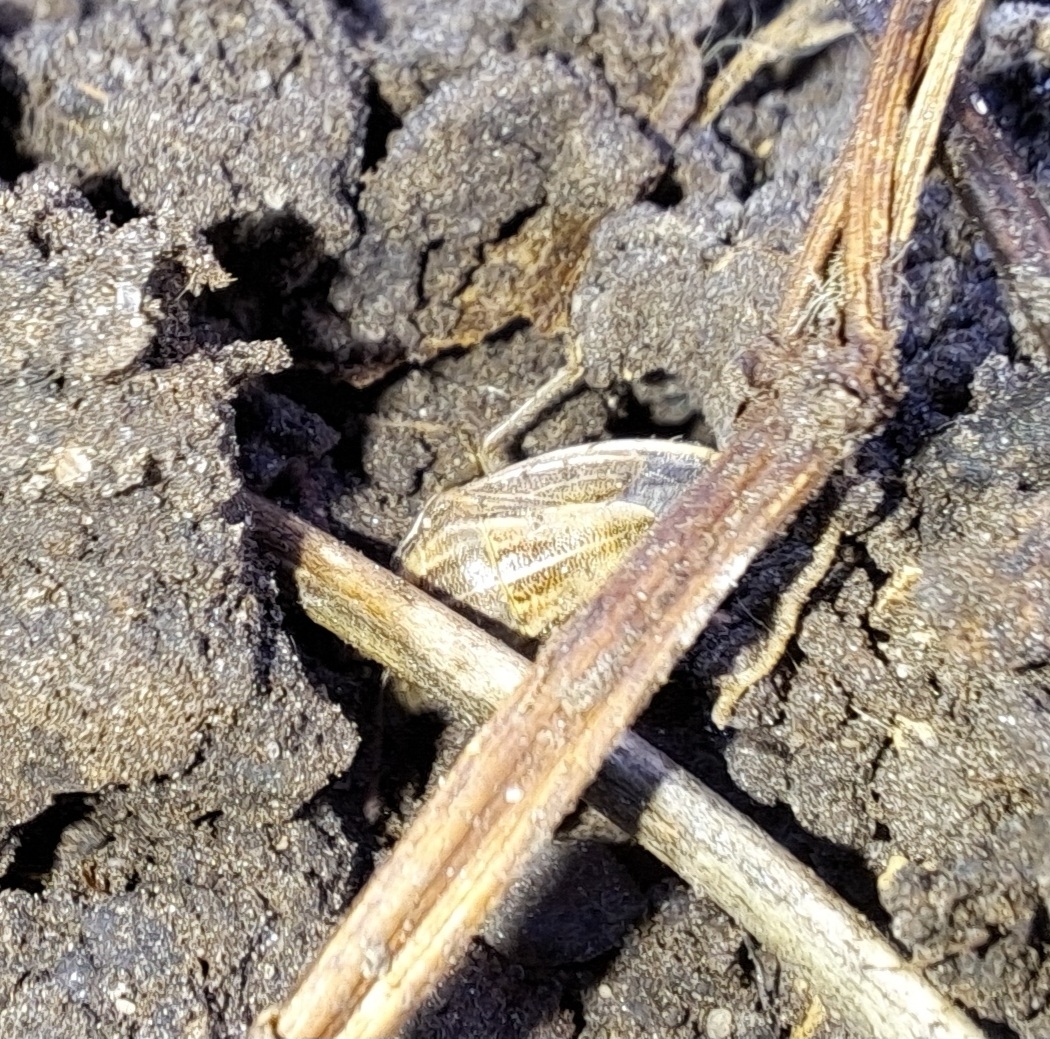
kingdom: Animalia
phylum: Arthropoda
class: Insecta
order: Hemiptera
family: Pentatomidae
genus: Aelia
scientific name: Aelia acuminata
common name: Bishop's mitre
